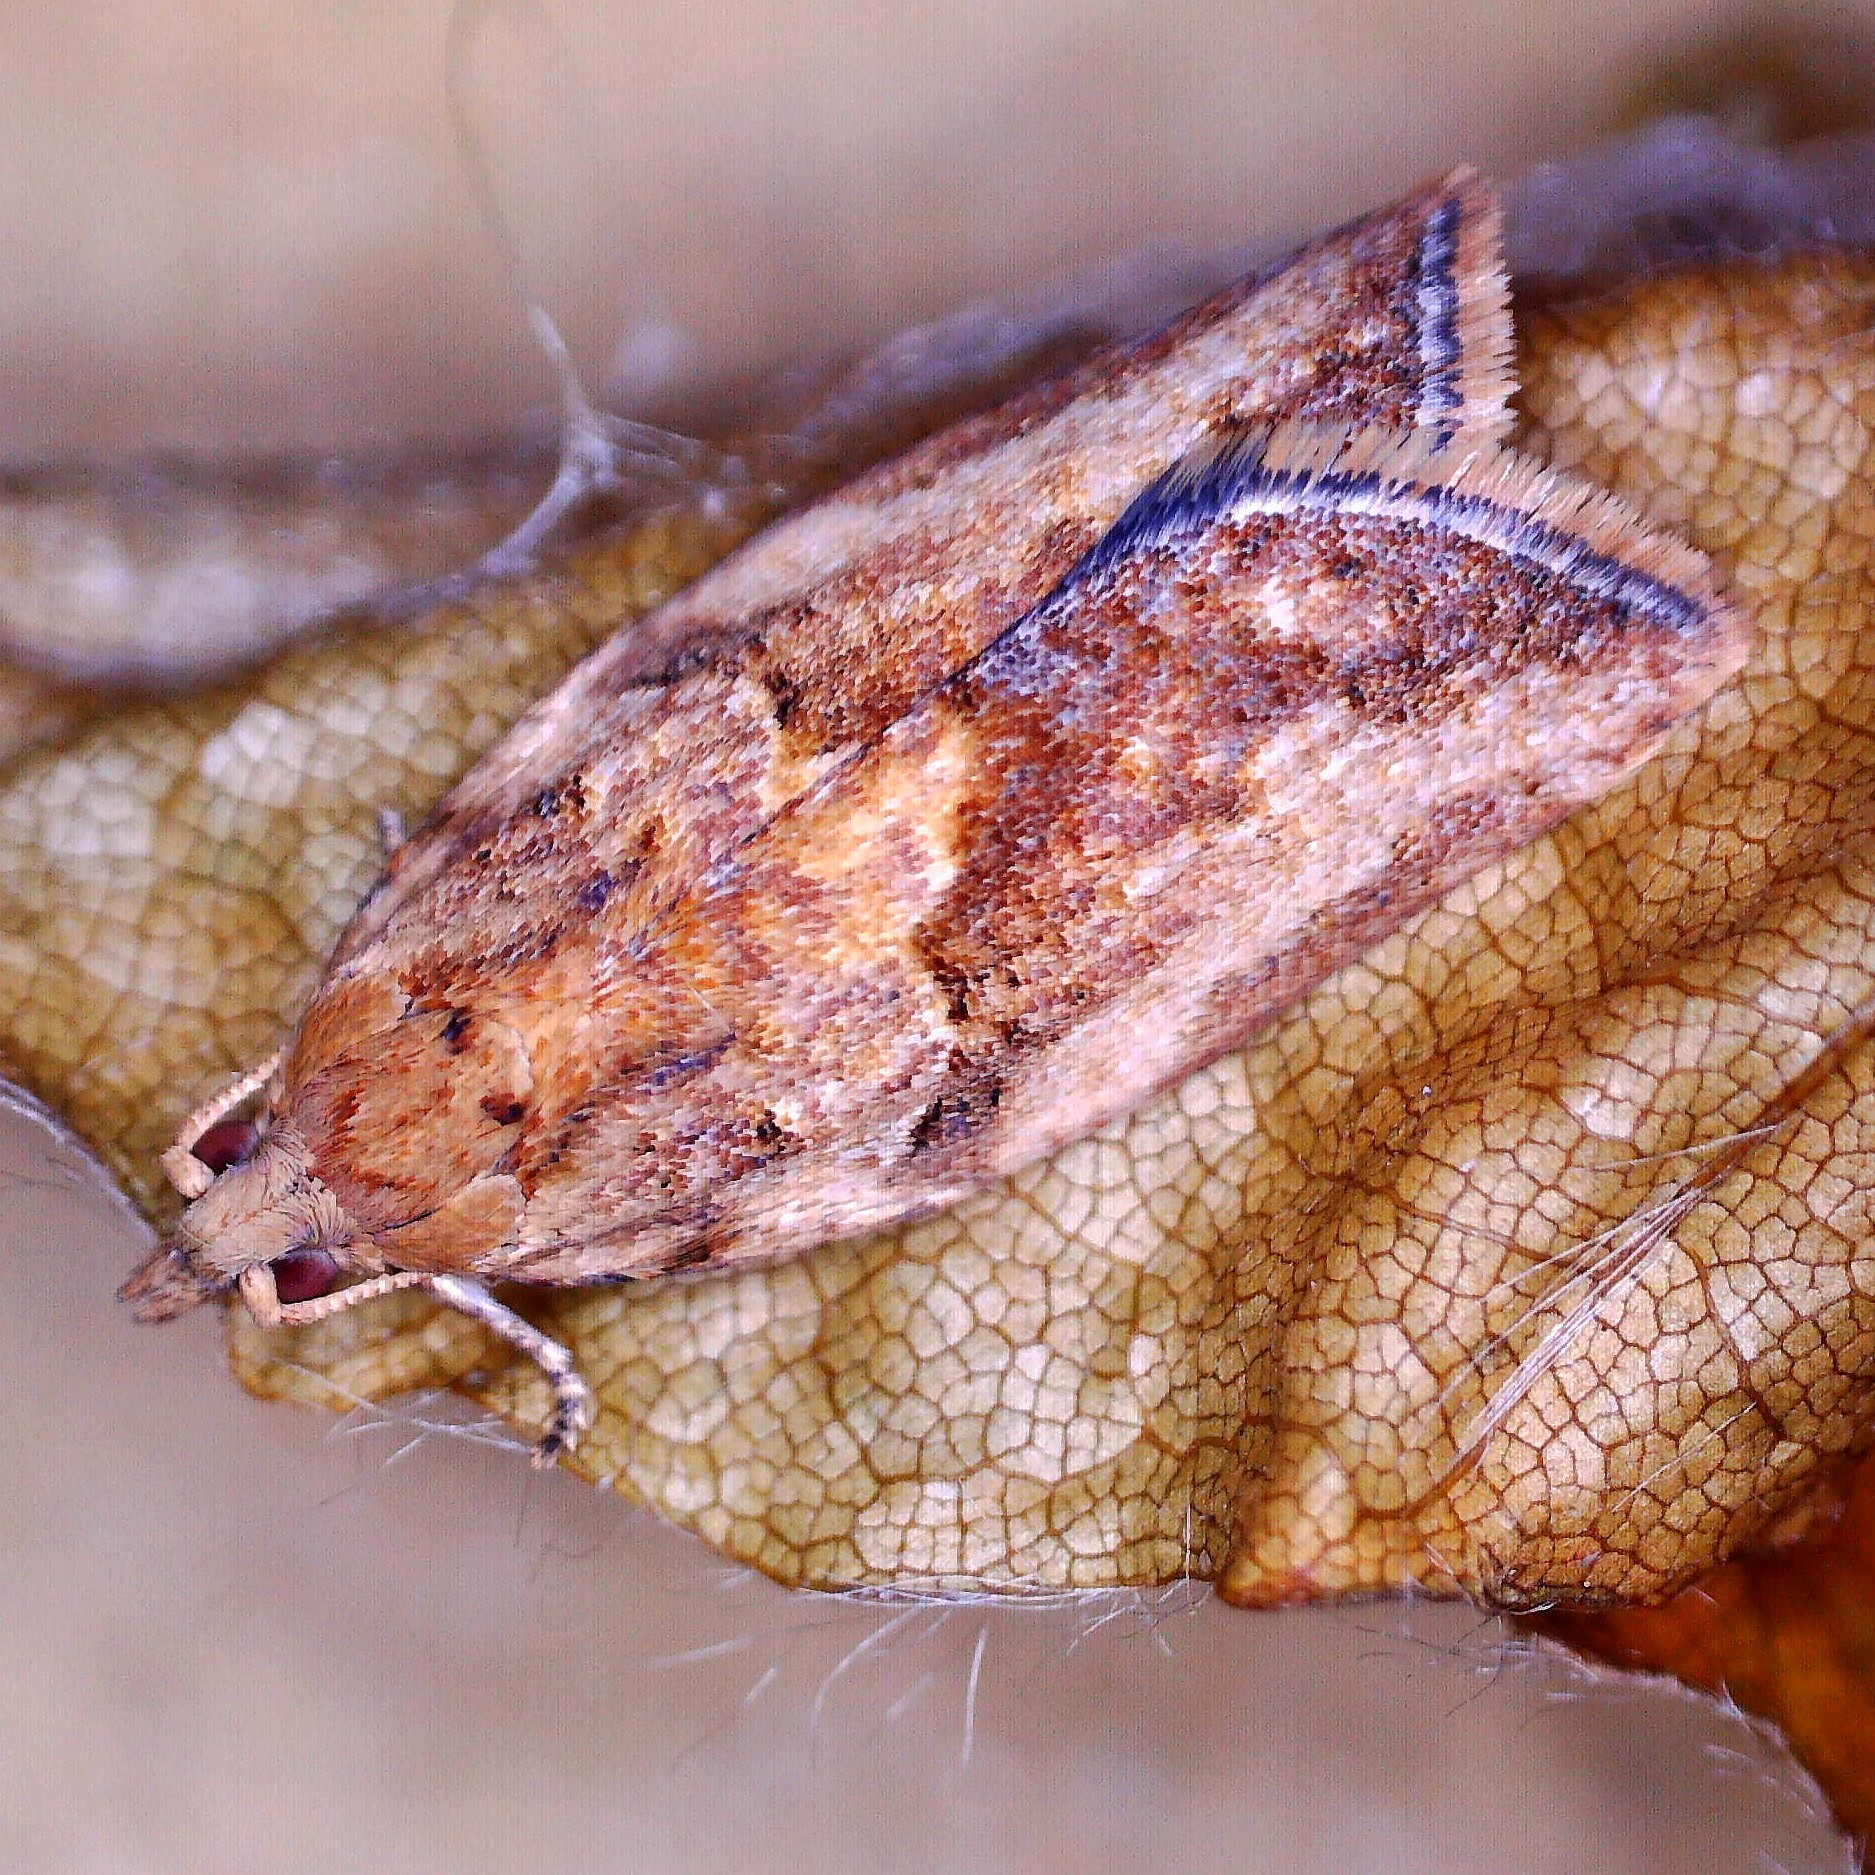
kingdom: Animalia
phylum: Arthropoda
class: Insecta
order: Lepidoptera
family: Tortricidae
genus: Epiphyas
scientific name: Epiphyas postvittana
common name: Light brown apple moth
